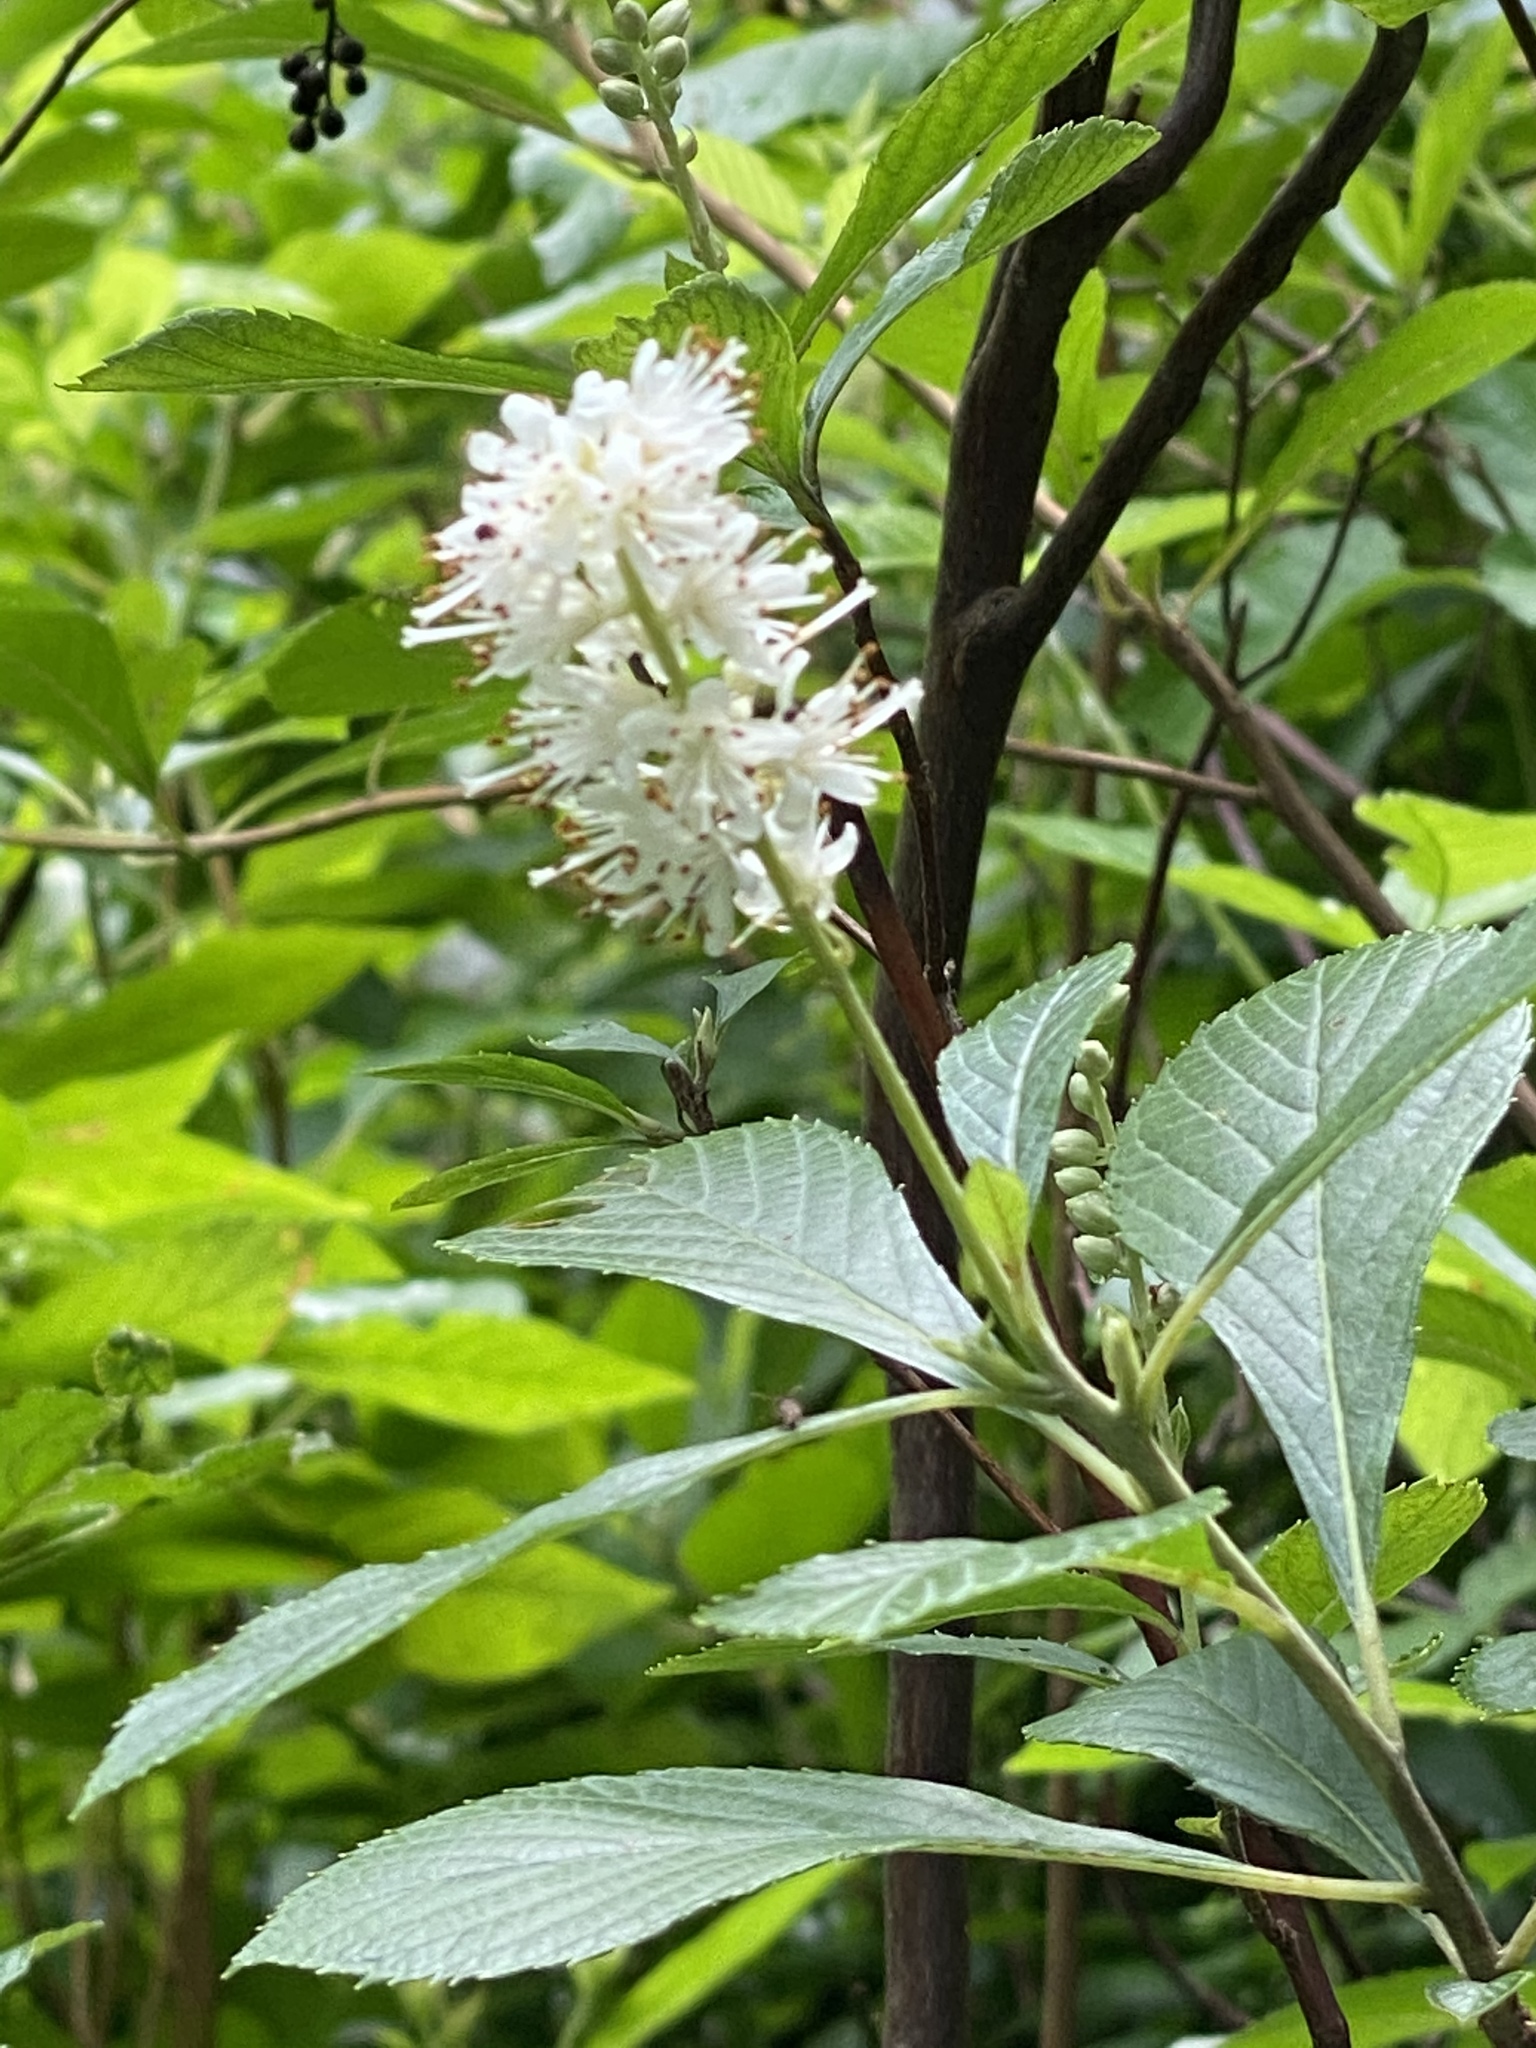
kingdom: Plantae
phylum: Tracheophyta
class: Magnoliopsida
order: Ericales
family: Clethraceae
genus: Clethra
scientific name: Clethra alnifolia
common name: Sweet pepperbush
